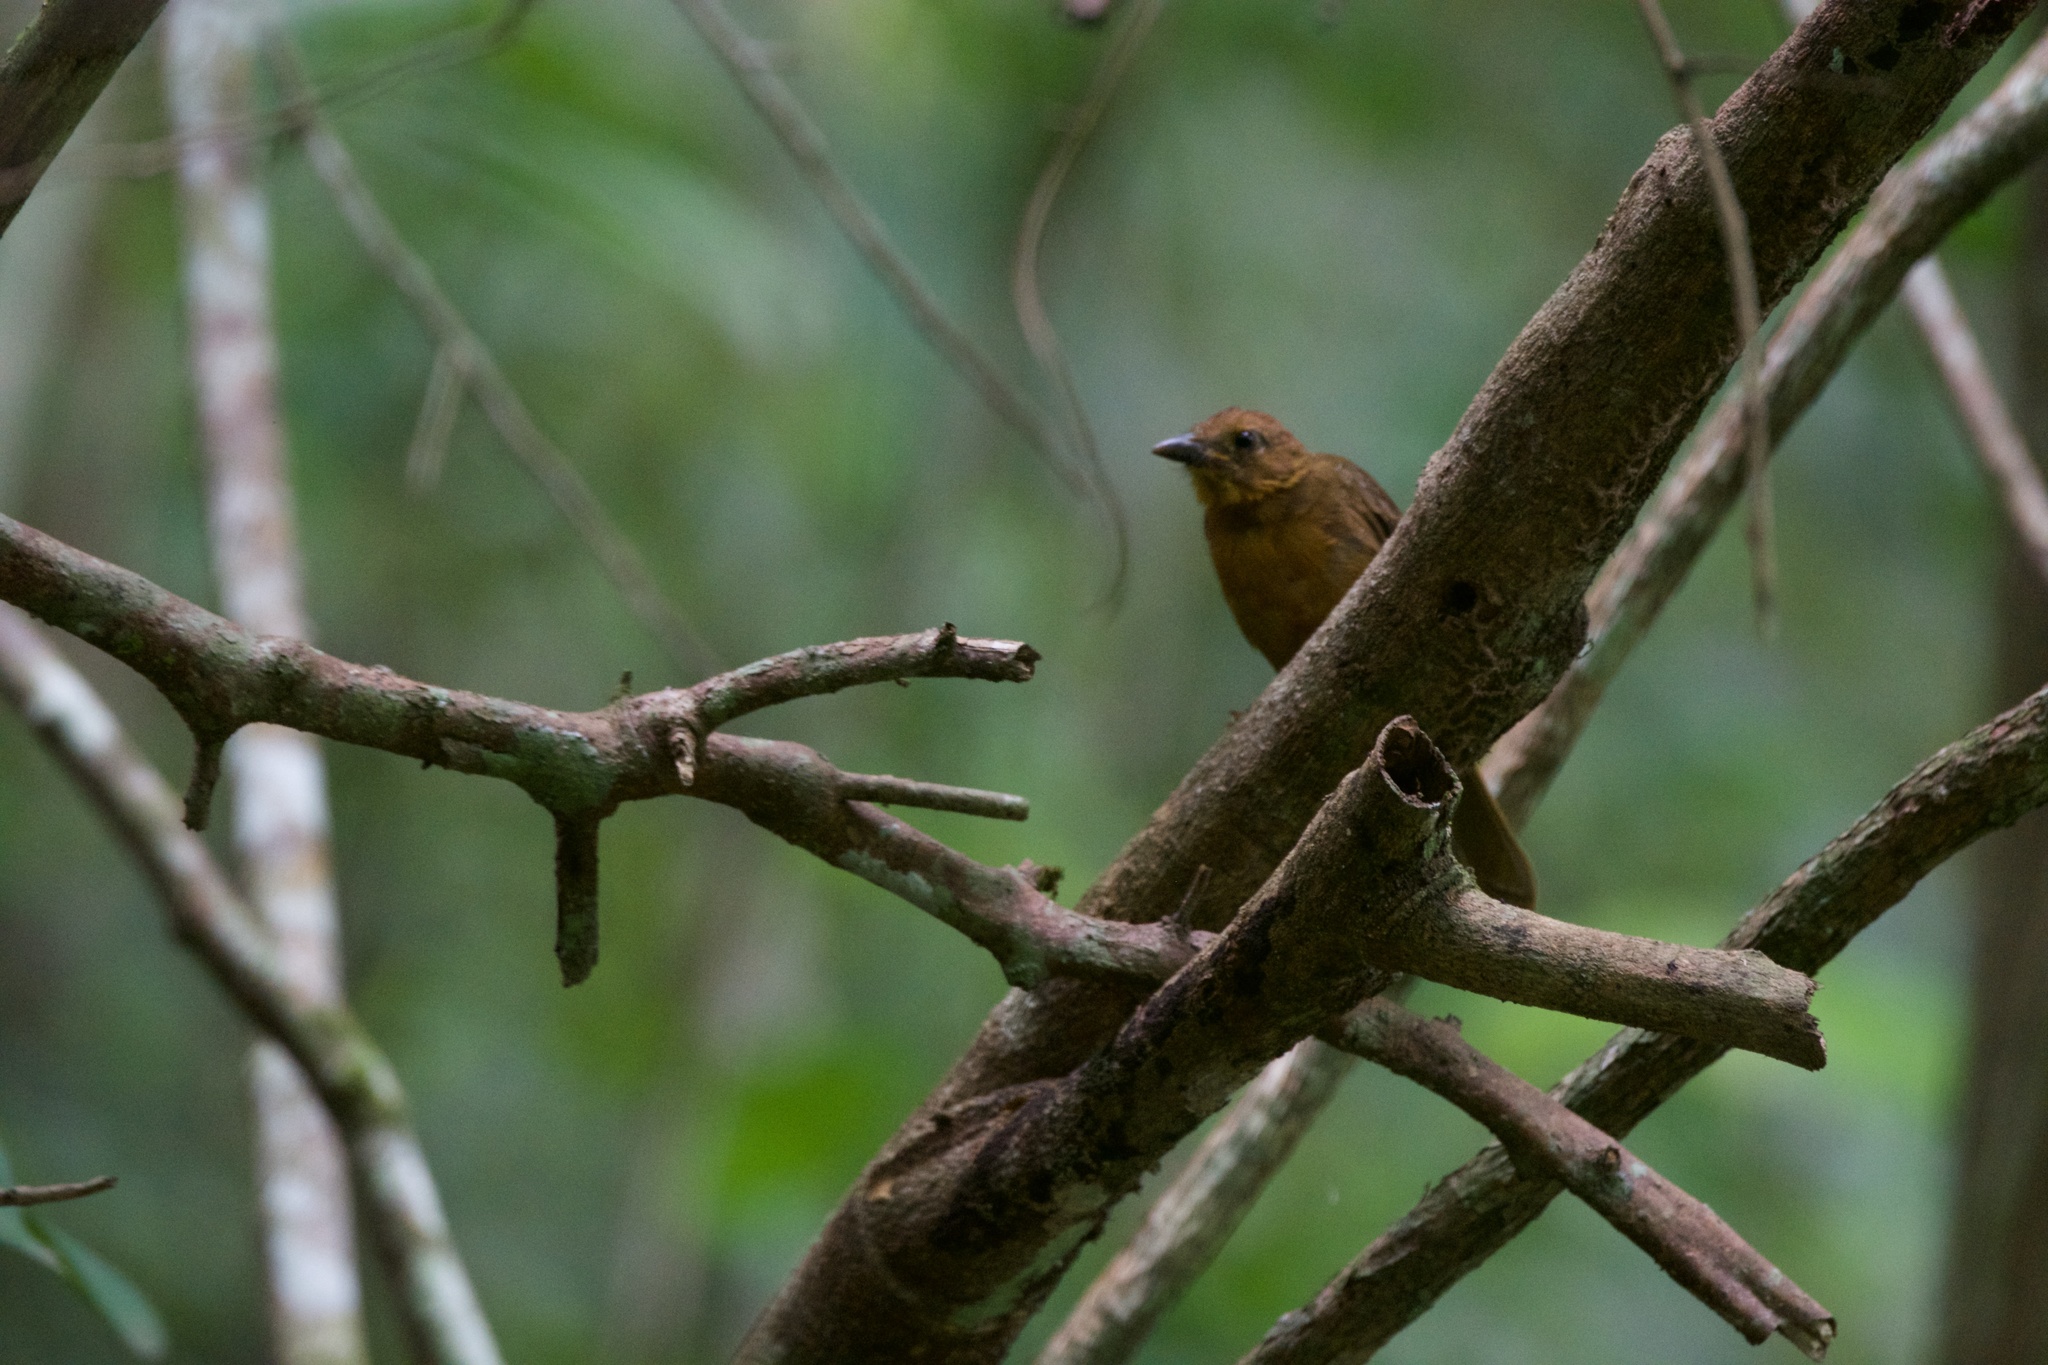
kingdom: Animalia
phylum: Chordata
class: Aves
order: Passeriformes
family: Cardinalidae
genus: Habia
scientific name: Habia
